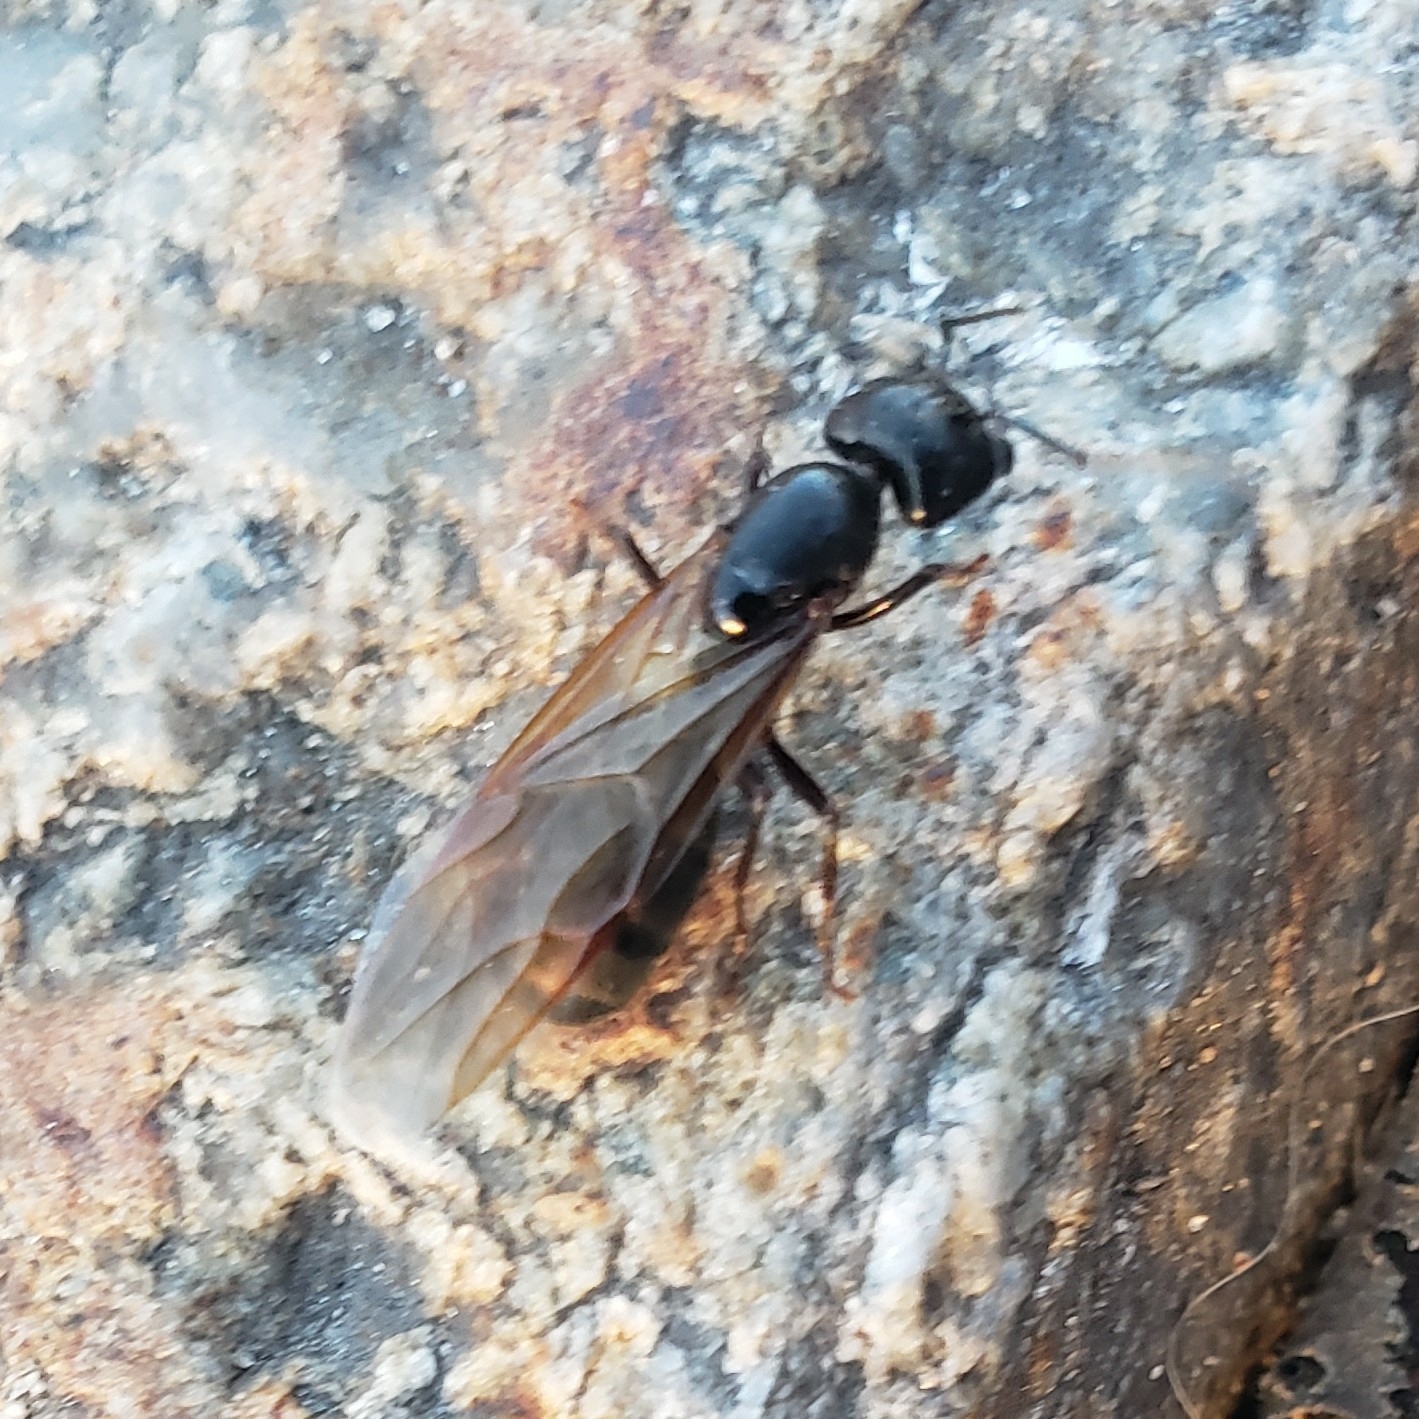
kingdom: Animalia
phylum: Arthropoda
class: Insecta
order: Hymenoptera
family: Formicidae
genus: Camponotus
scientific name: Camponotus pennsylvanicus
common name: Black carpenter ant
